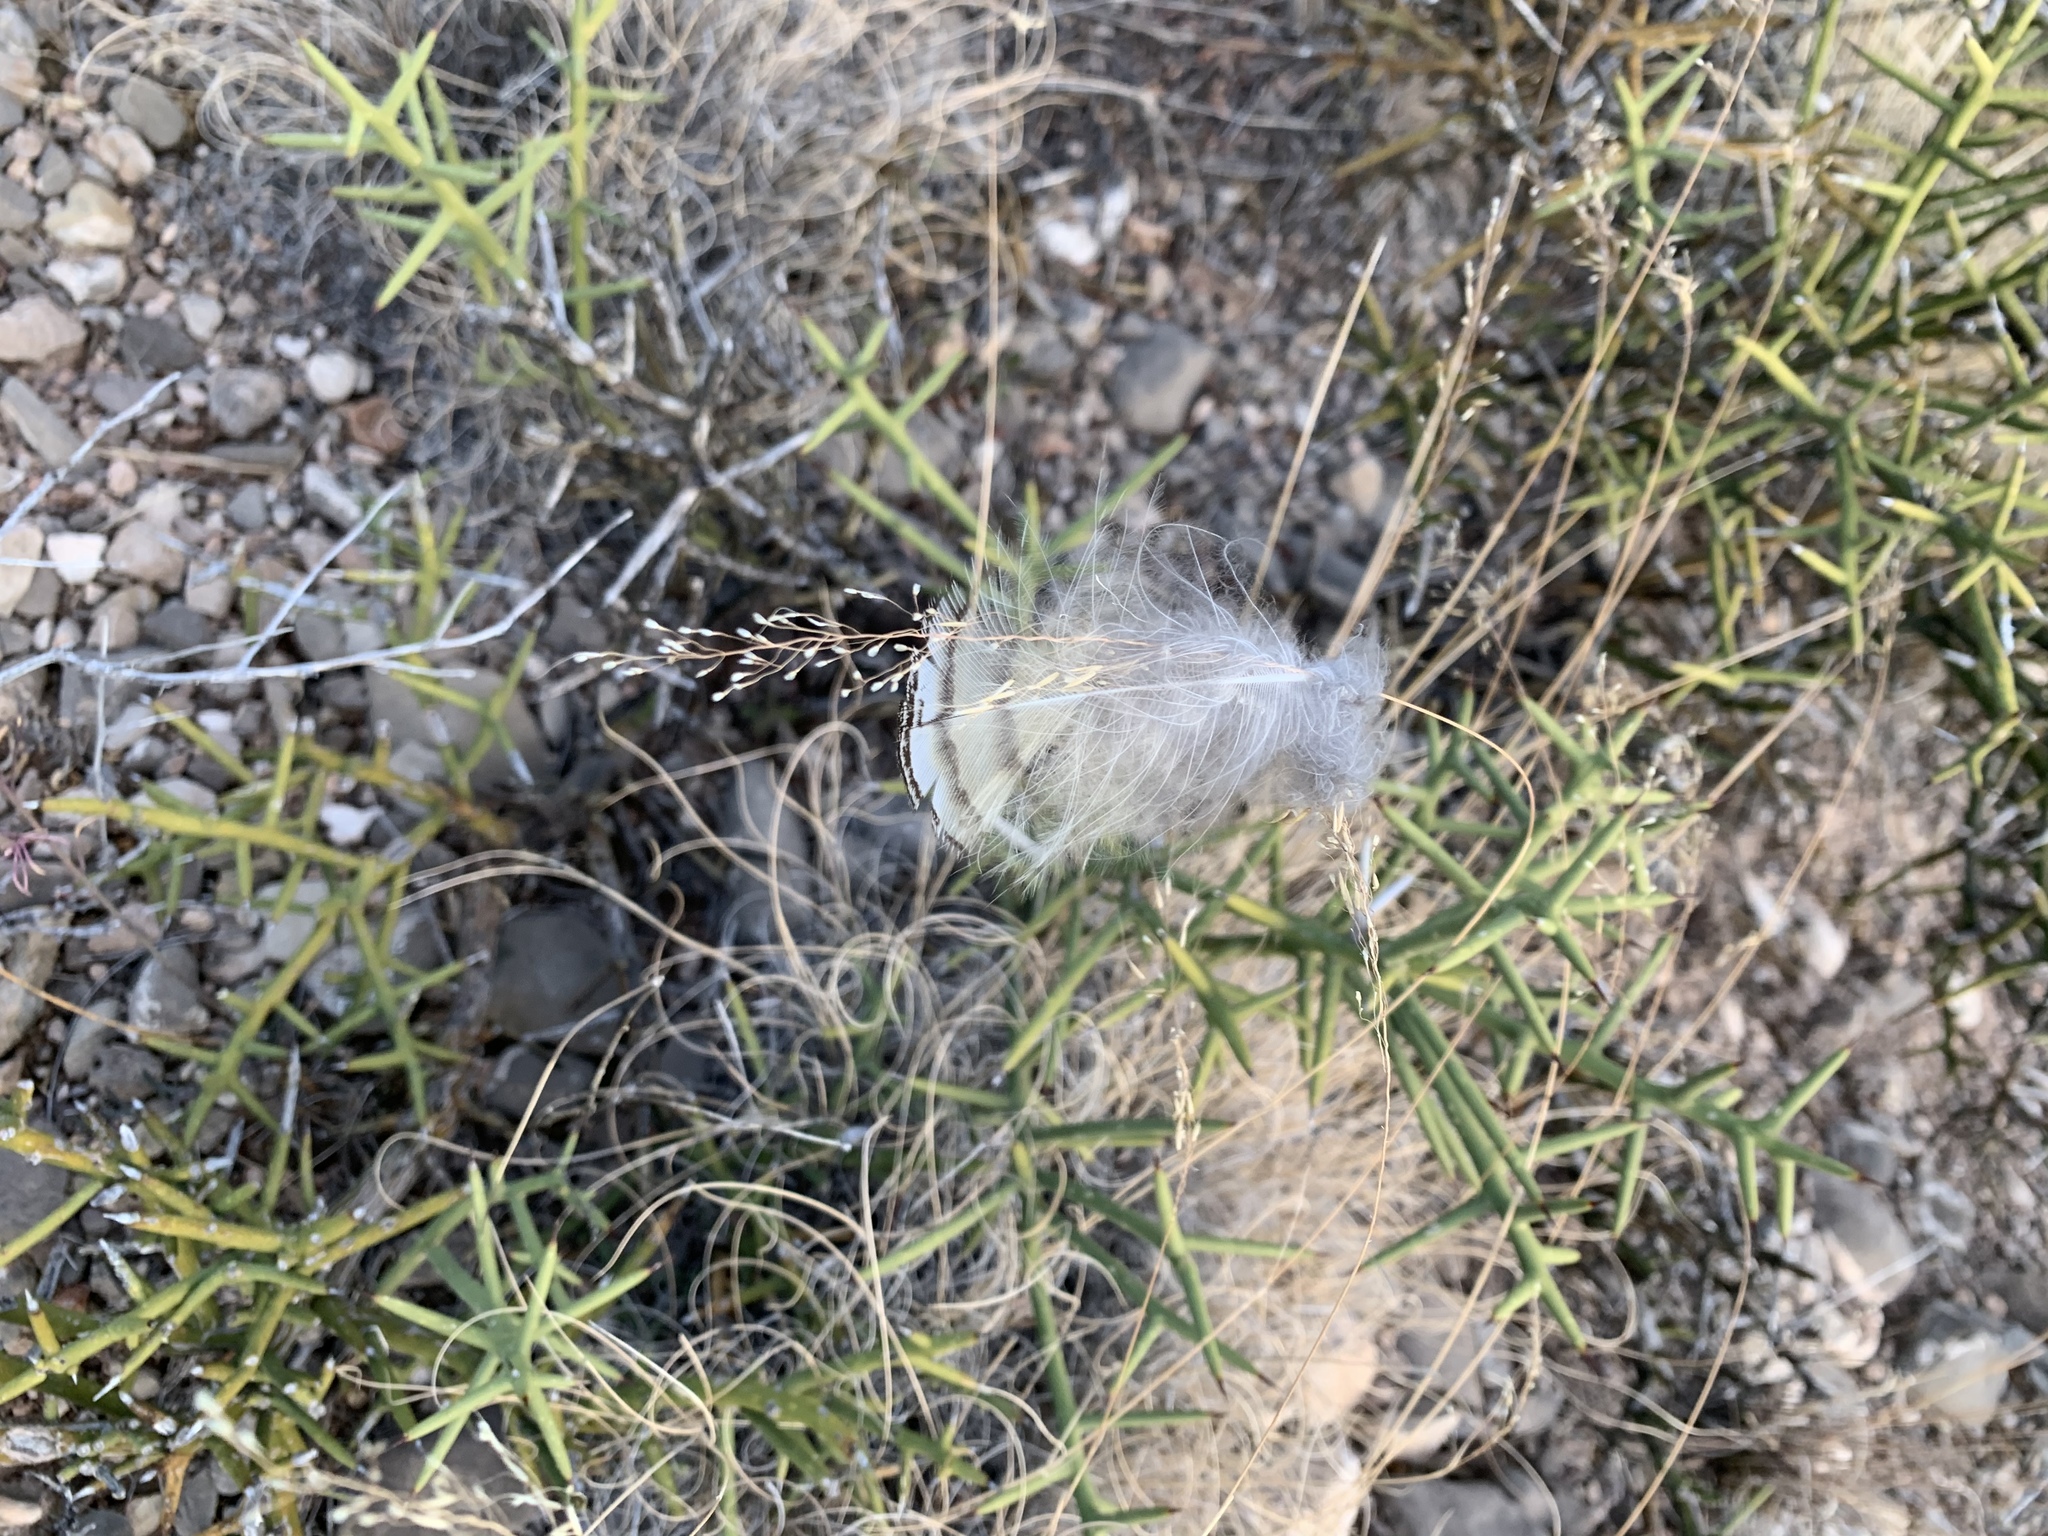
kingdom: Animalia
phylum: Chordata
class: Aves
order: Strigiformes
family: Strigidae
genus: Bubo
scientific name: Bubo virginianus
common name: Great horned owl
